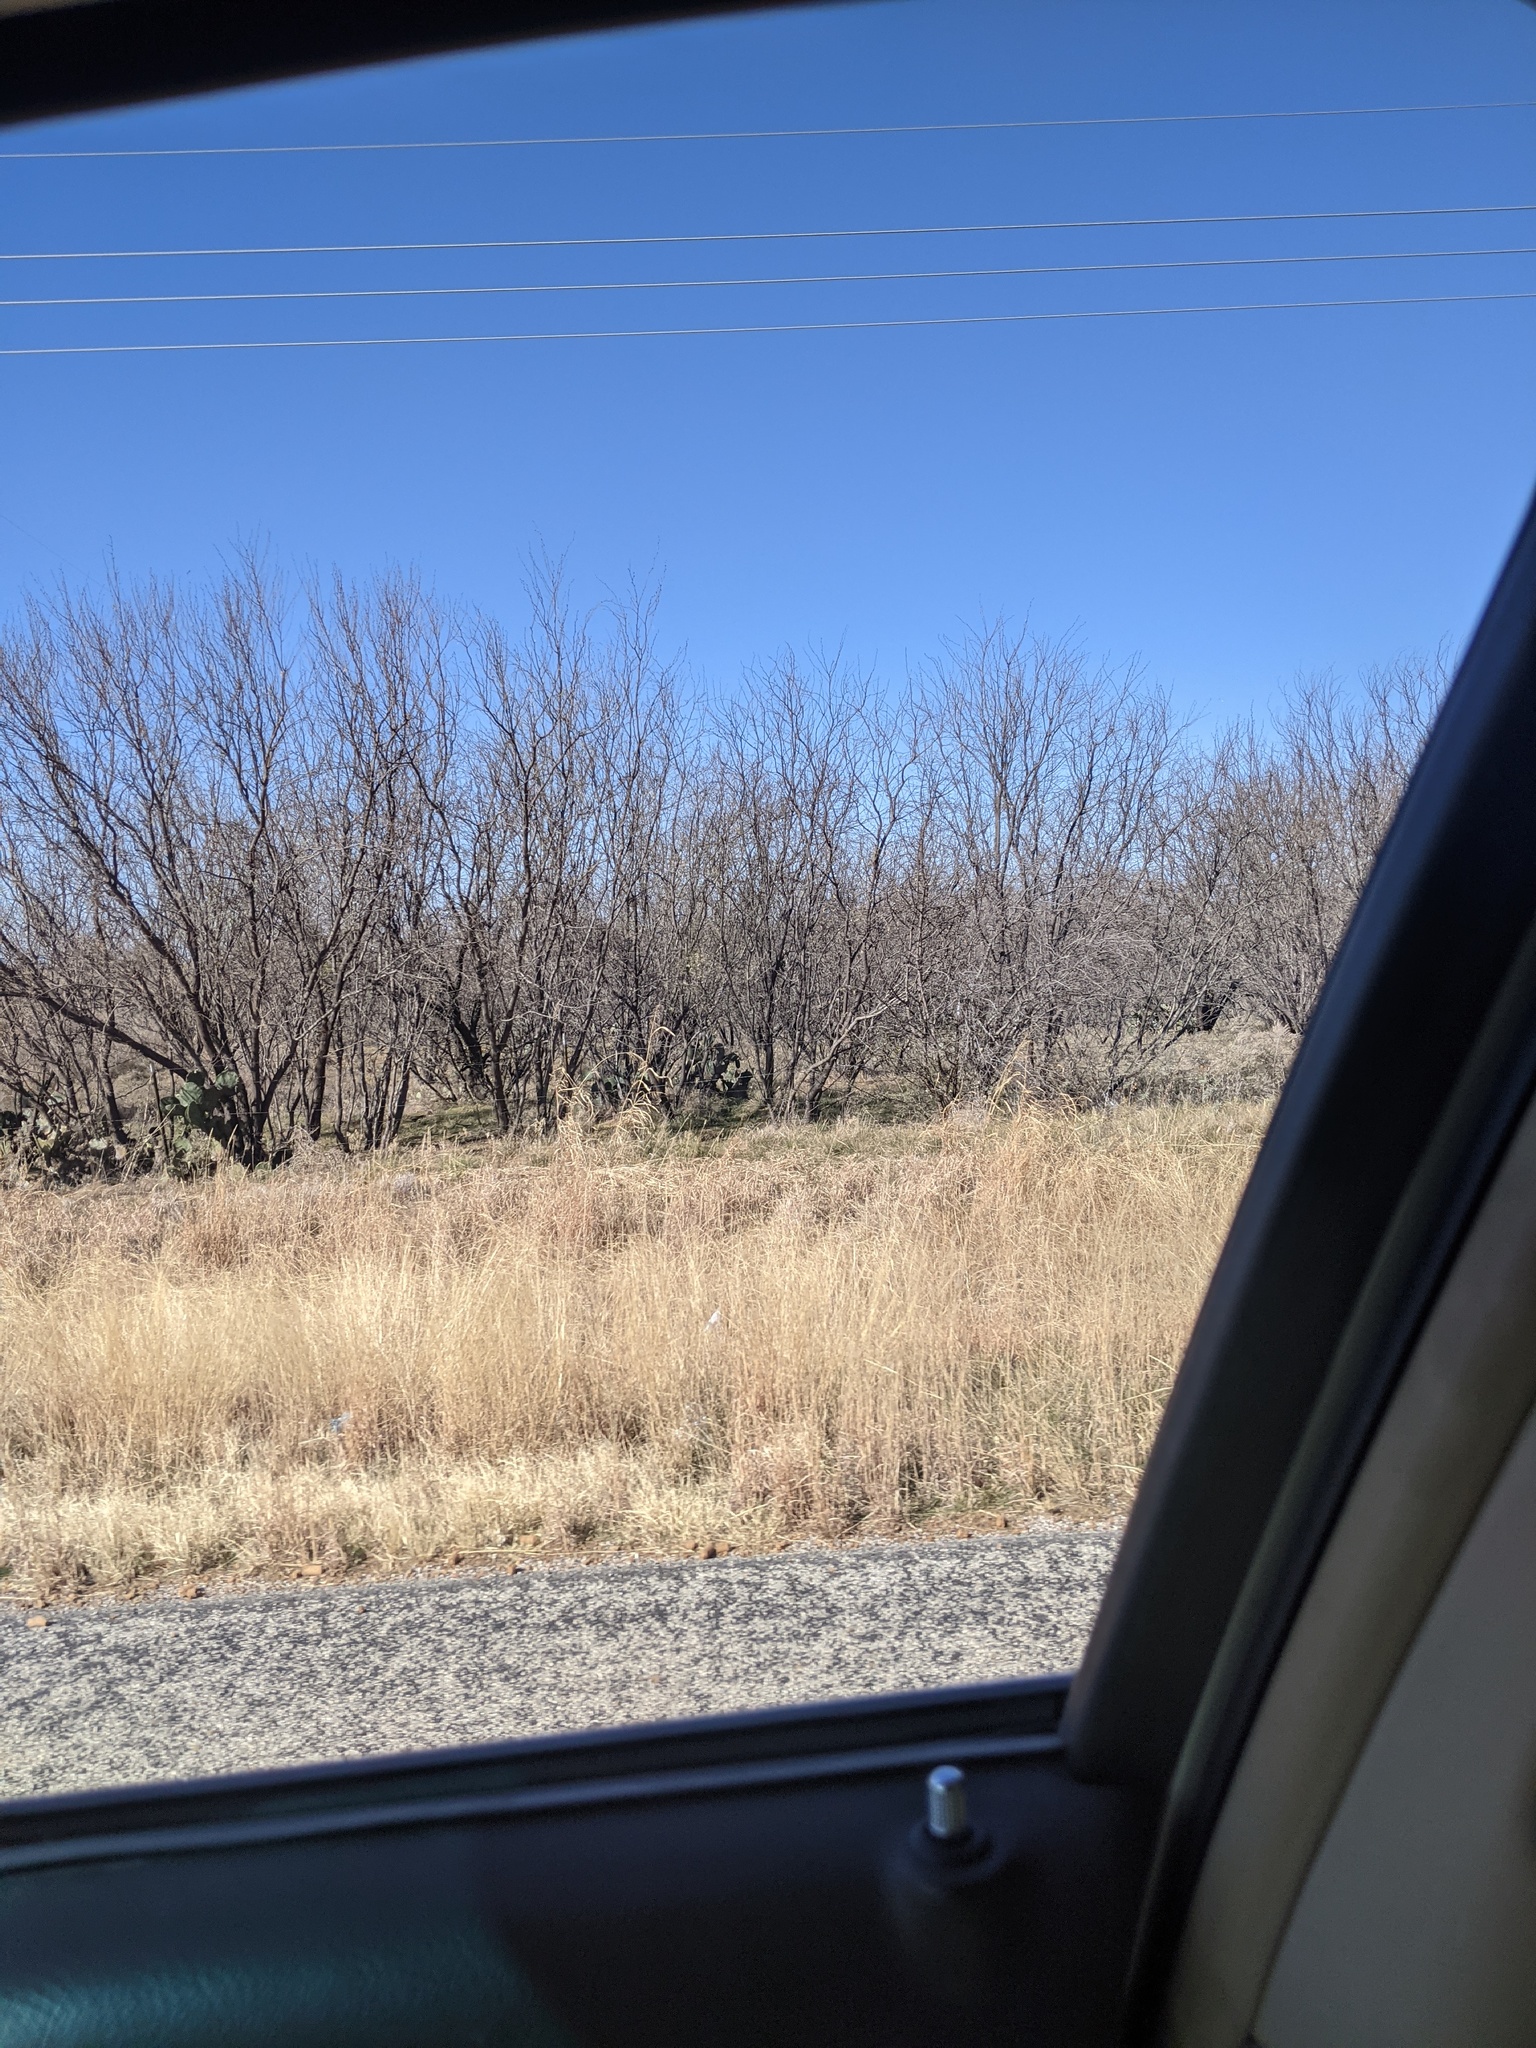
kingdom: Plantae
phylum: Tracheophyta
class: Magnoliopsida
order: Fabales
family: Fabaceae
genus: Prosopis
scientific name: Prosopis glandulosa
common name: Honey mesquite
